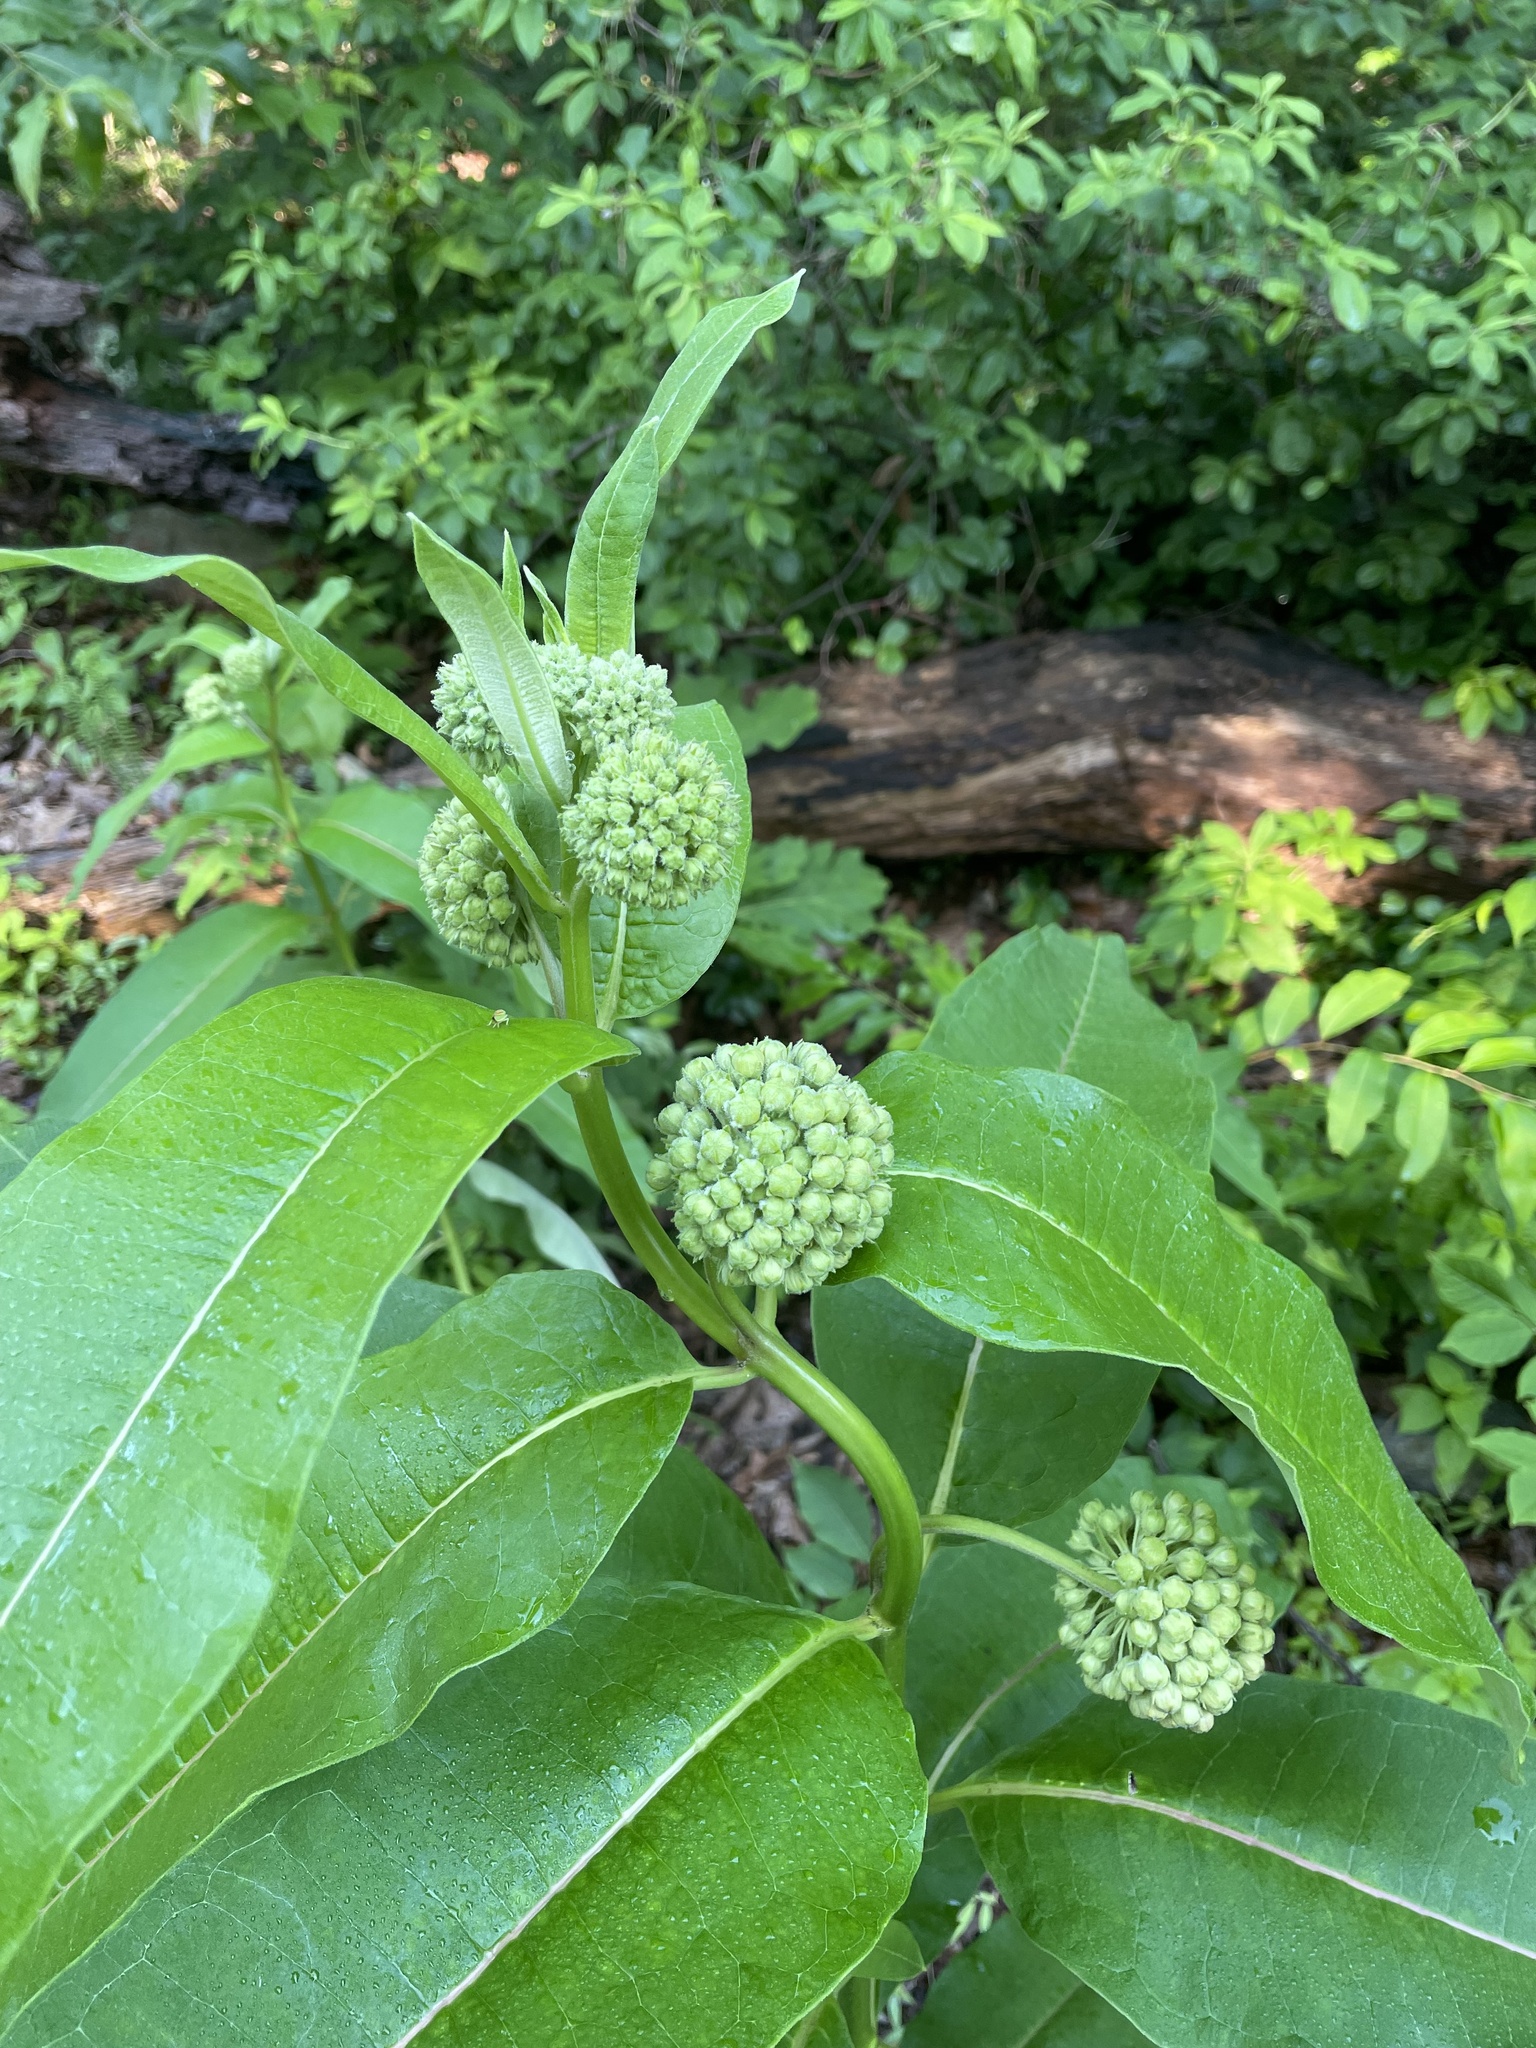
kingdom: Plantae
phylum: Tracheophyta
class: Magnoliopsida
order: Gentianales
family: Apocynaceae
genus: Asclepias
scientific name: Asclepias syriaca
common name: Common milkweed
